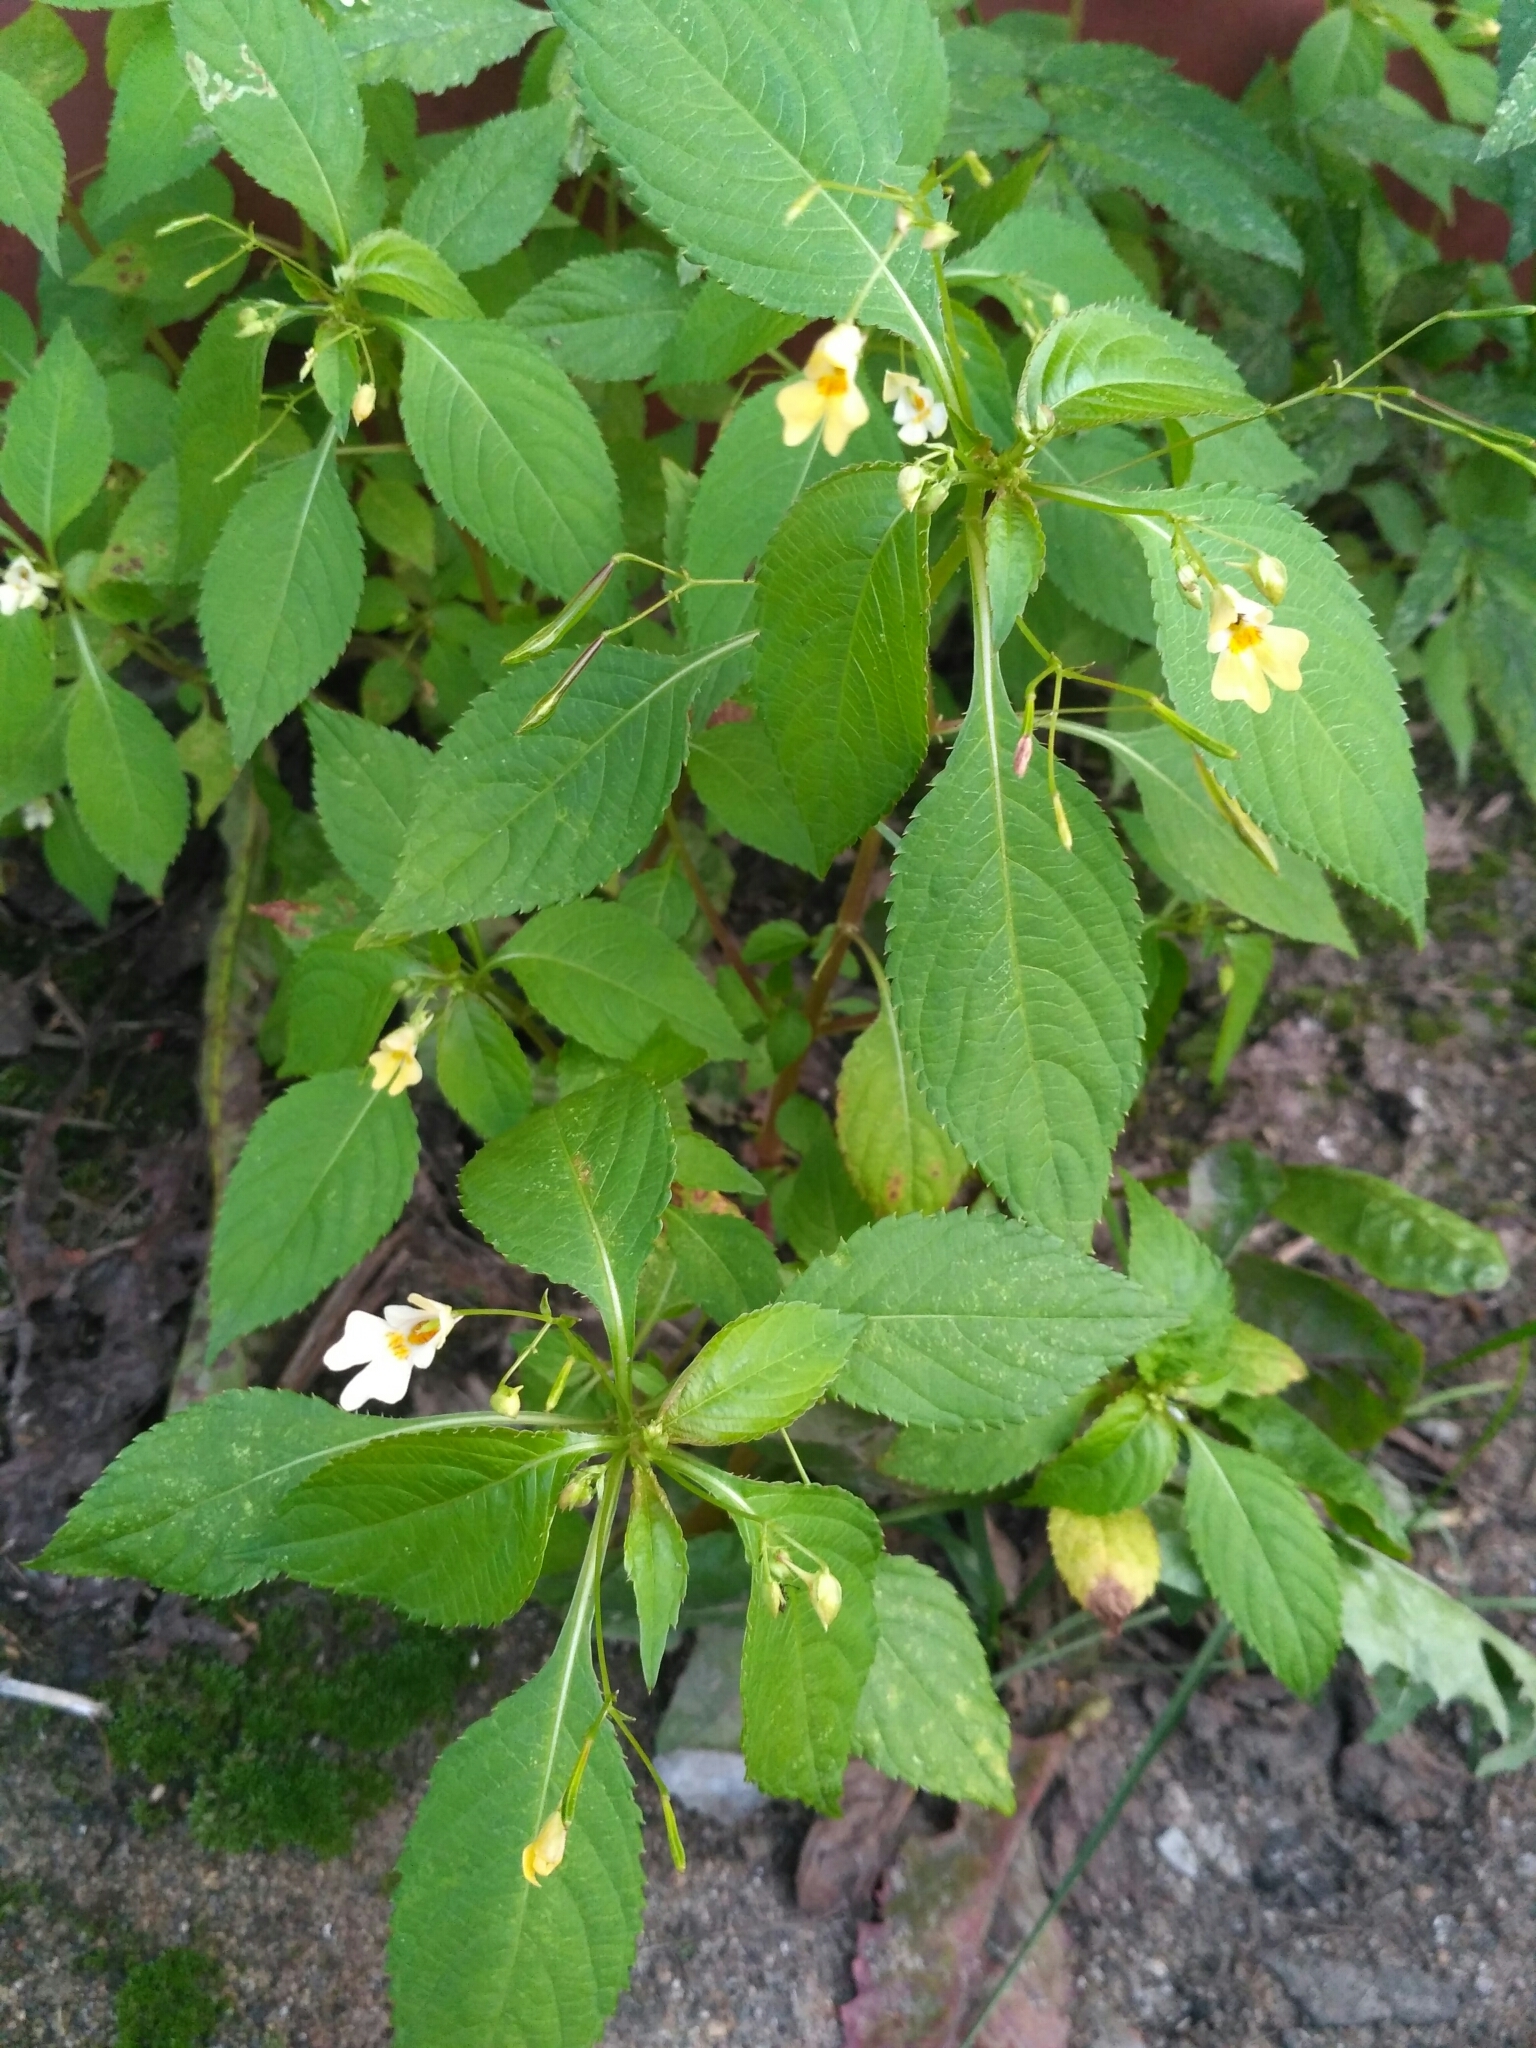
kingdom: Plantae
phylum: Tracheophyta
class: Magnoliopsida
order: Ericales
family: Balsaminaceae
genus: Impatiens
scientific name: Impatiens parviflora
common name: Small balsam
